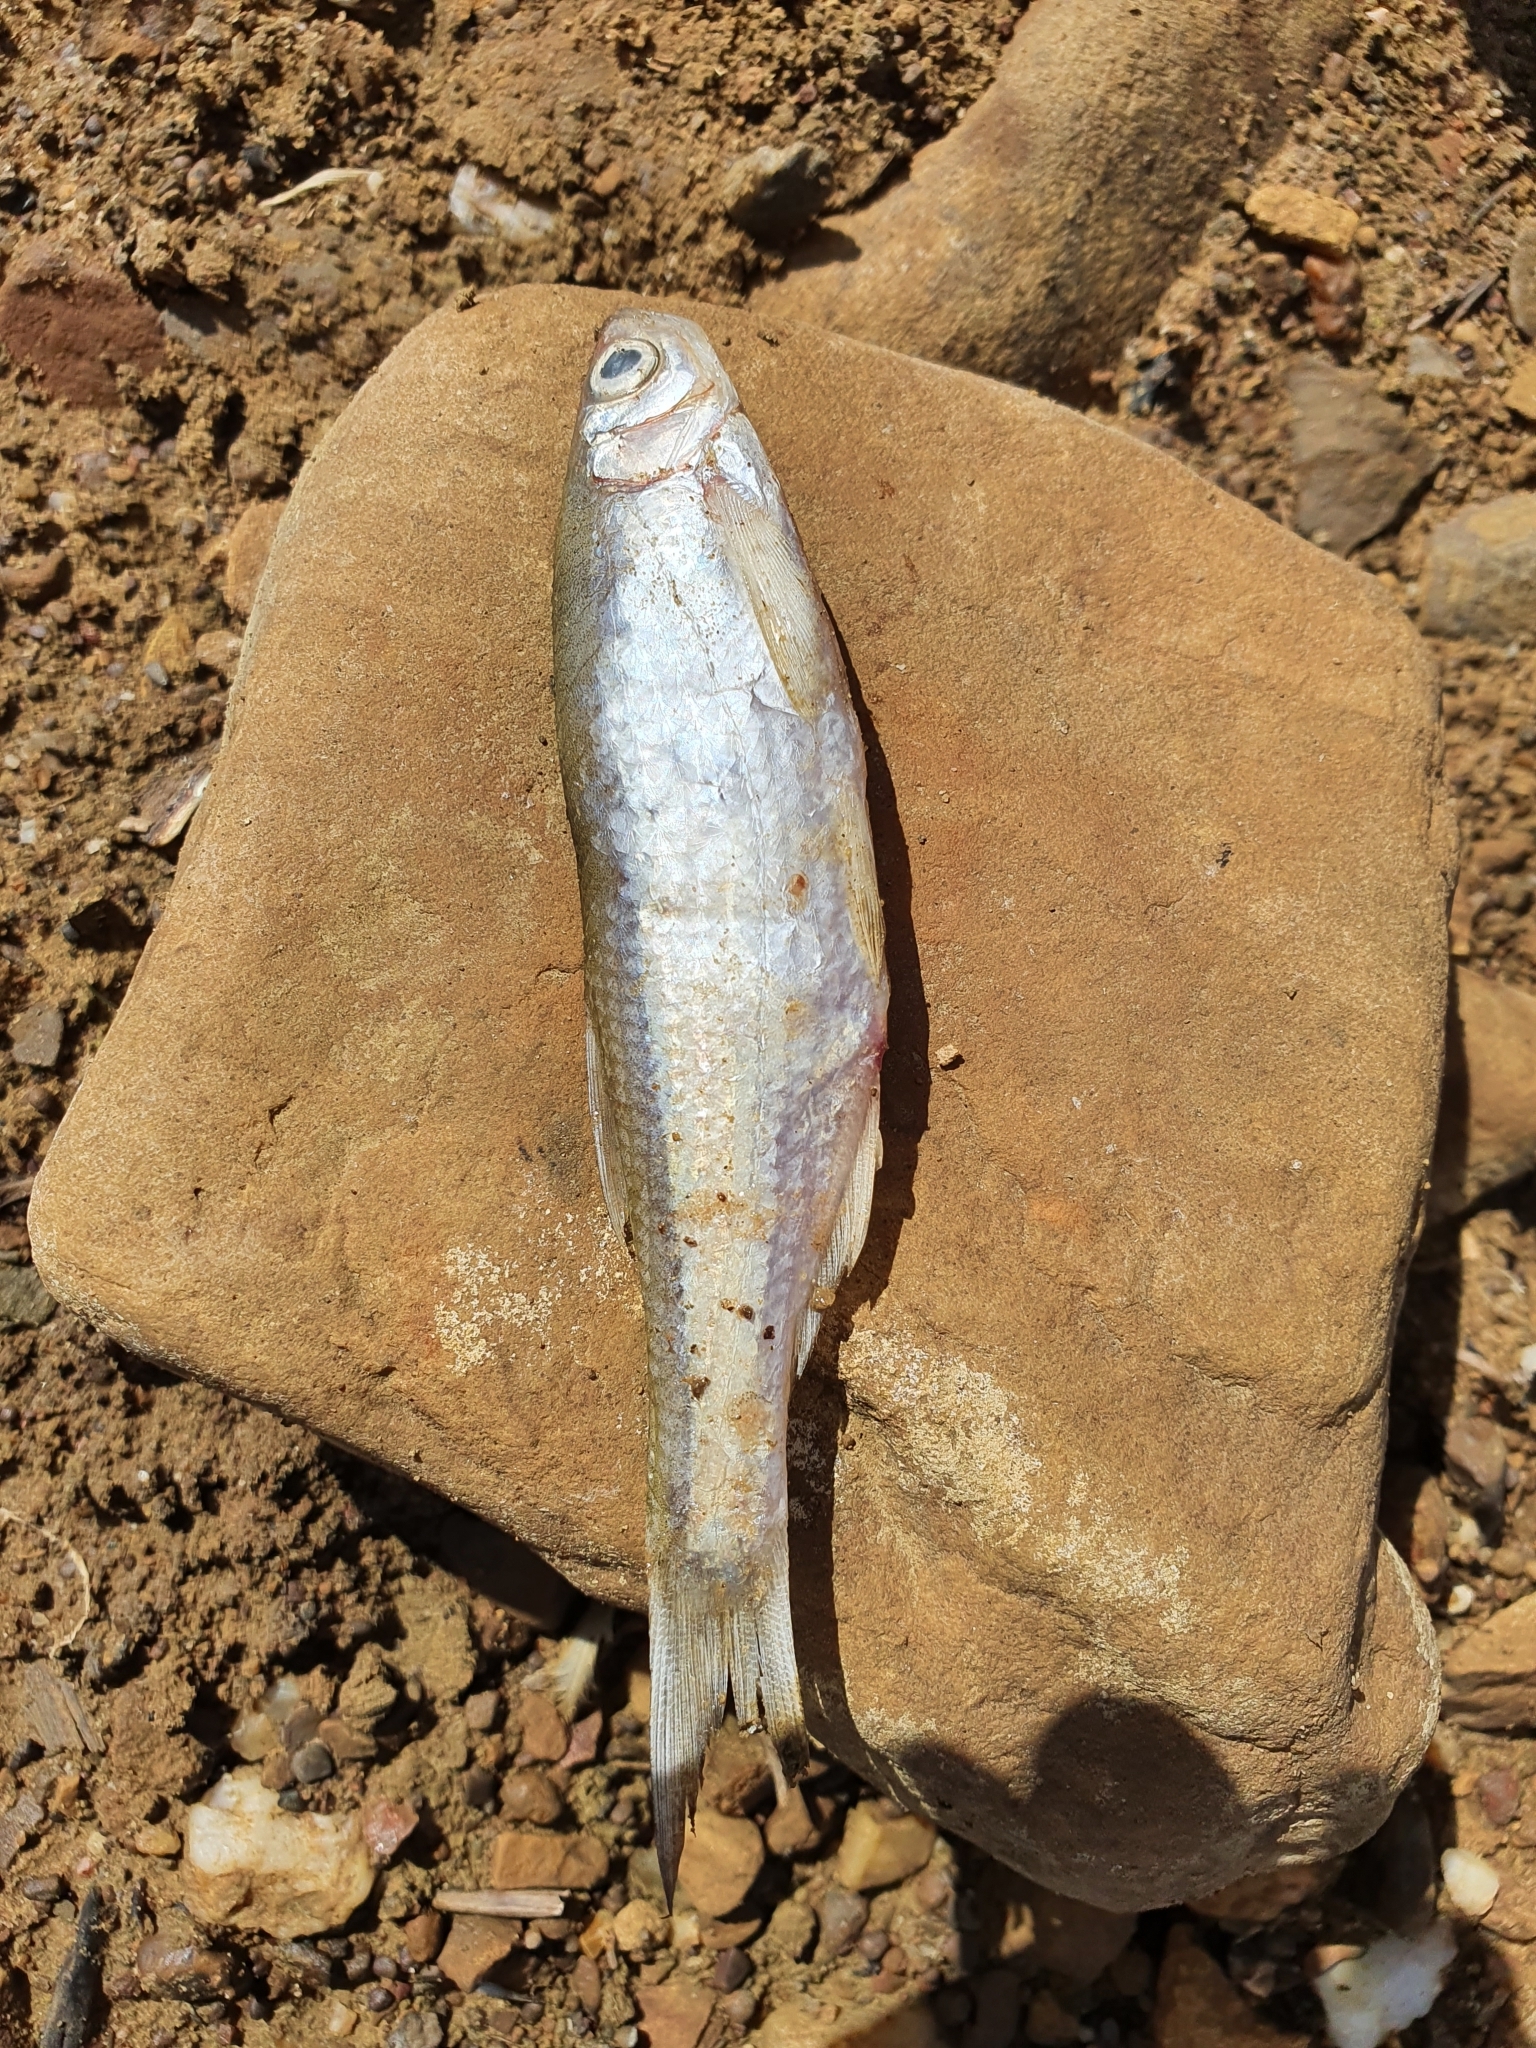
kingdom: Animalia
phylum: Chordata
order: Cypriniformes
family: Cyprinidae
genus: Alburnus
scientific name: Alburnus alburnus
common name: Bleak
